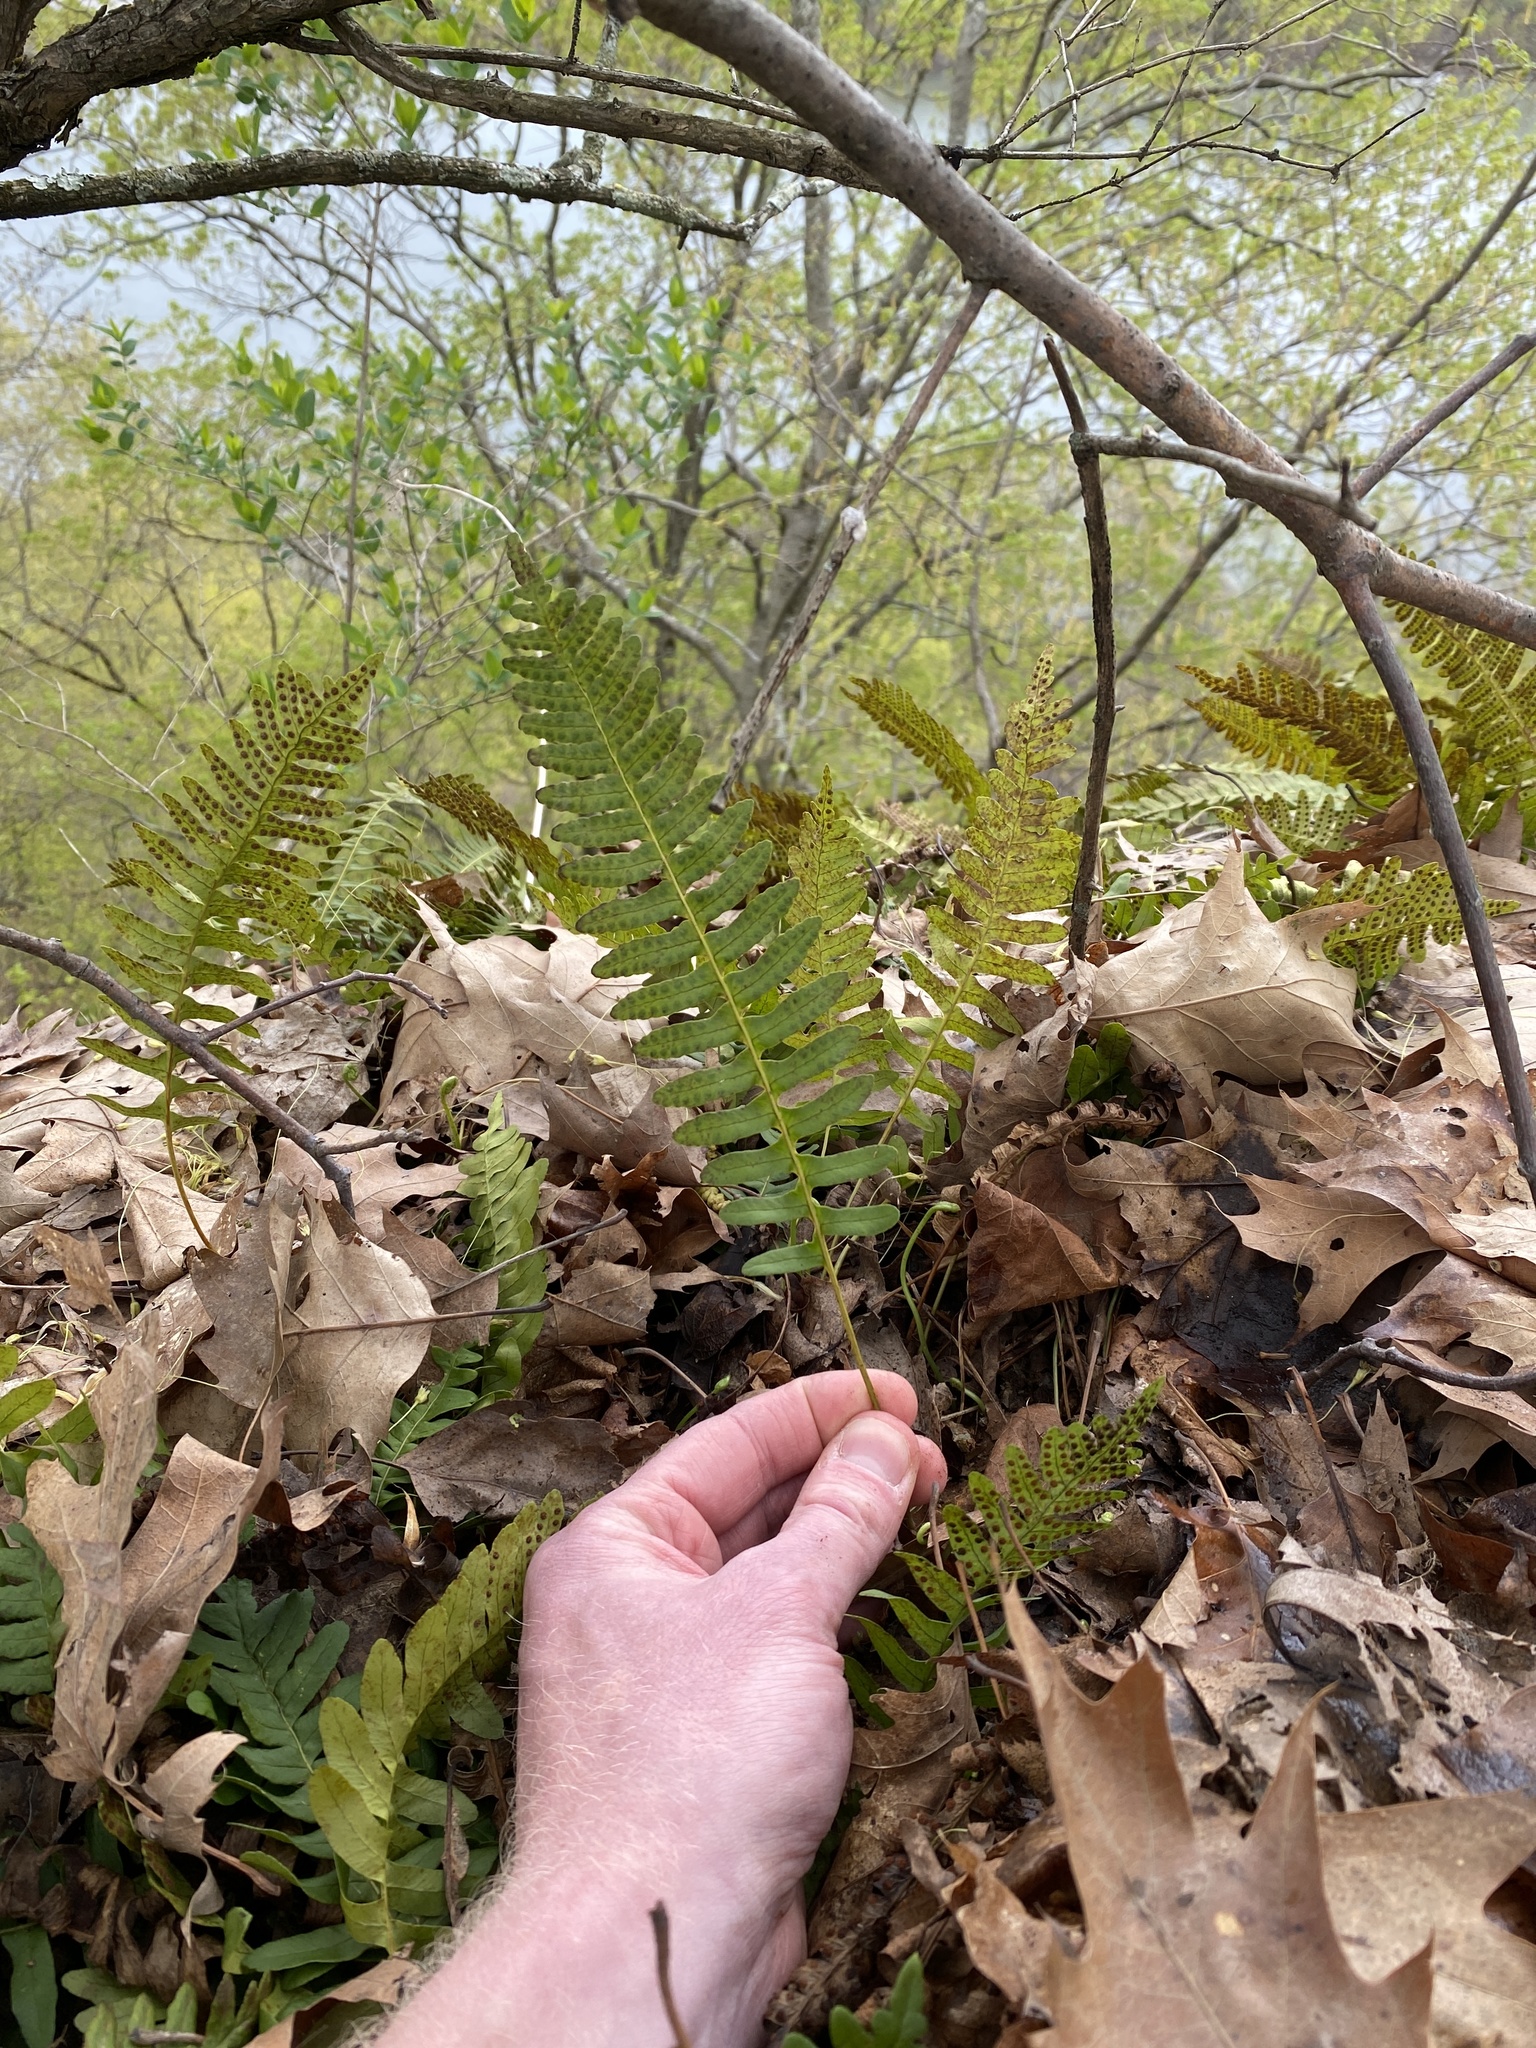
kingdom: Plantae
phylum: Tracheophyta
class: Polypodiopsida
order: Polypodiales
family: Polypodiaceae
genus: Polypodium
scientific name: Polypodium virginianum
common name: American wall fern
